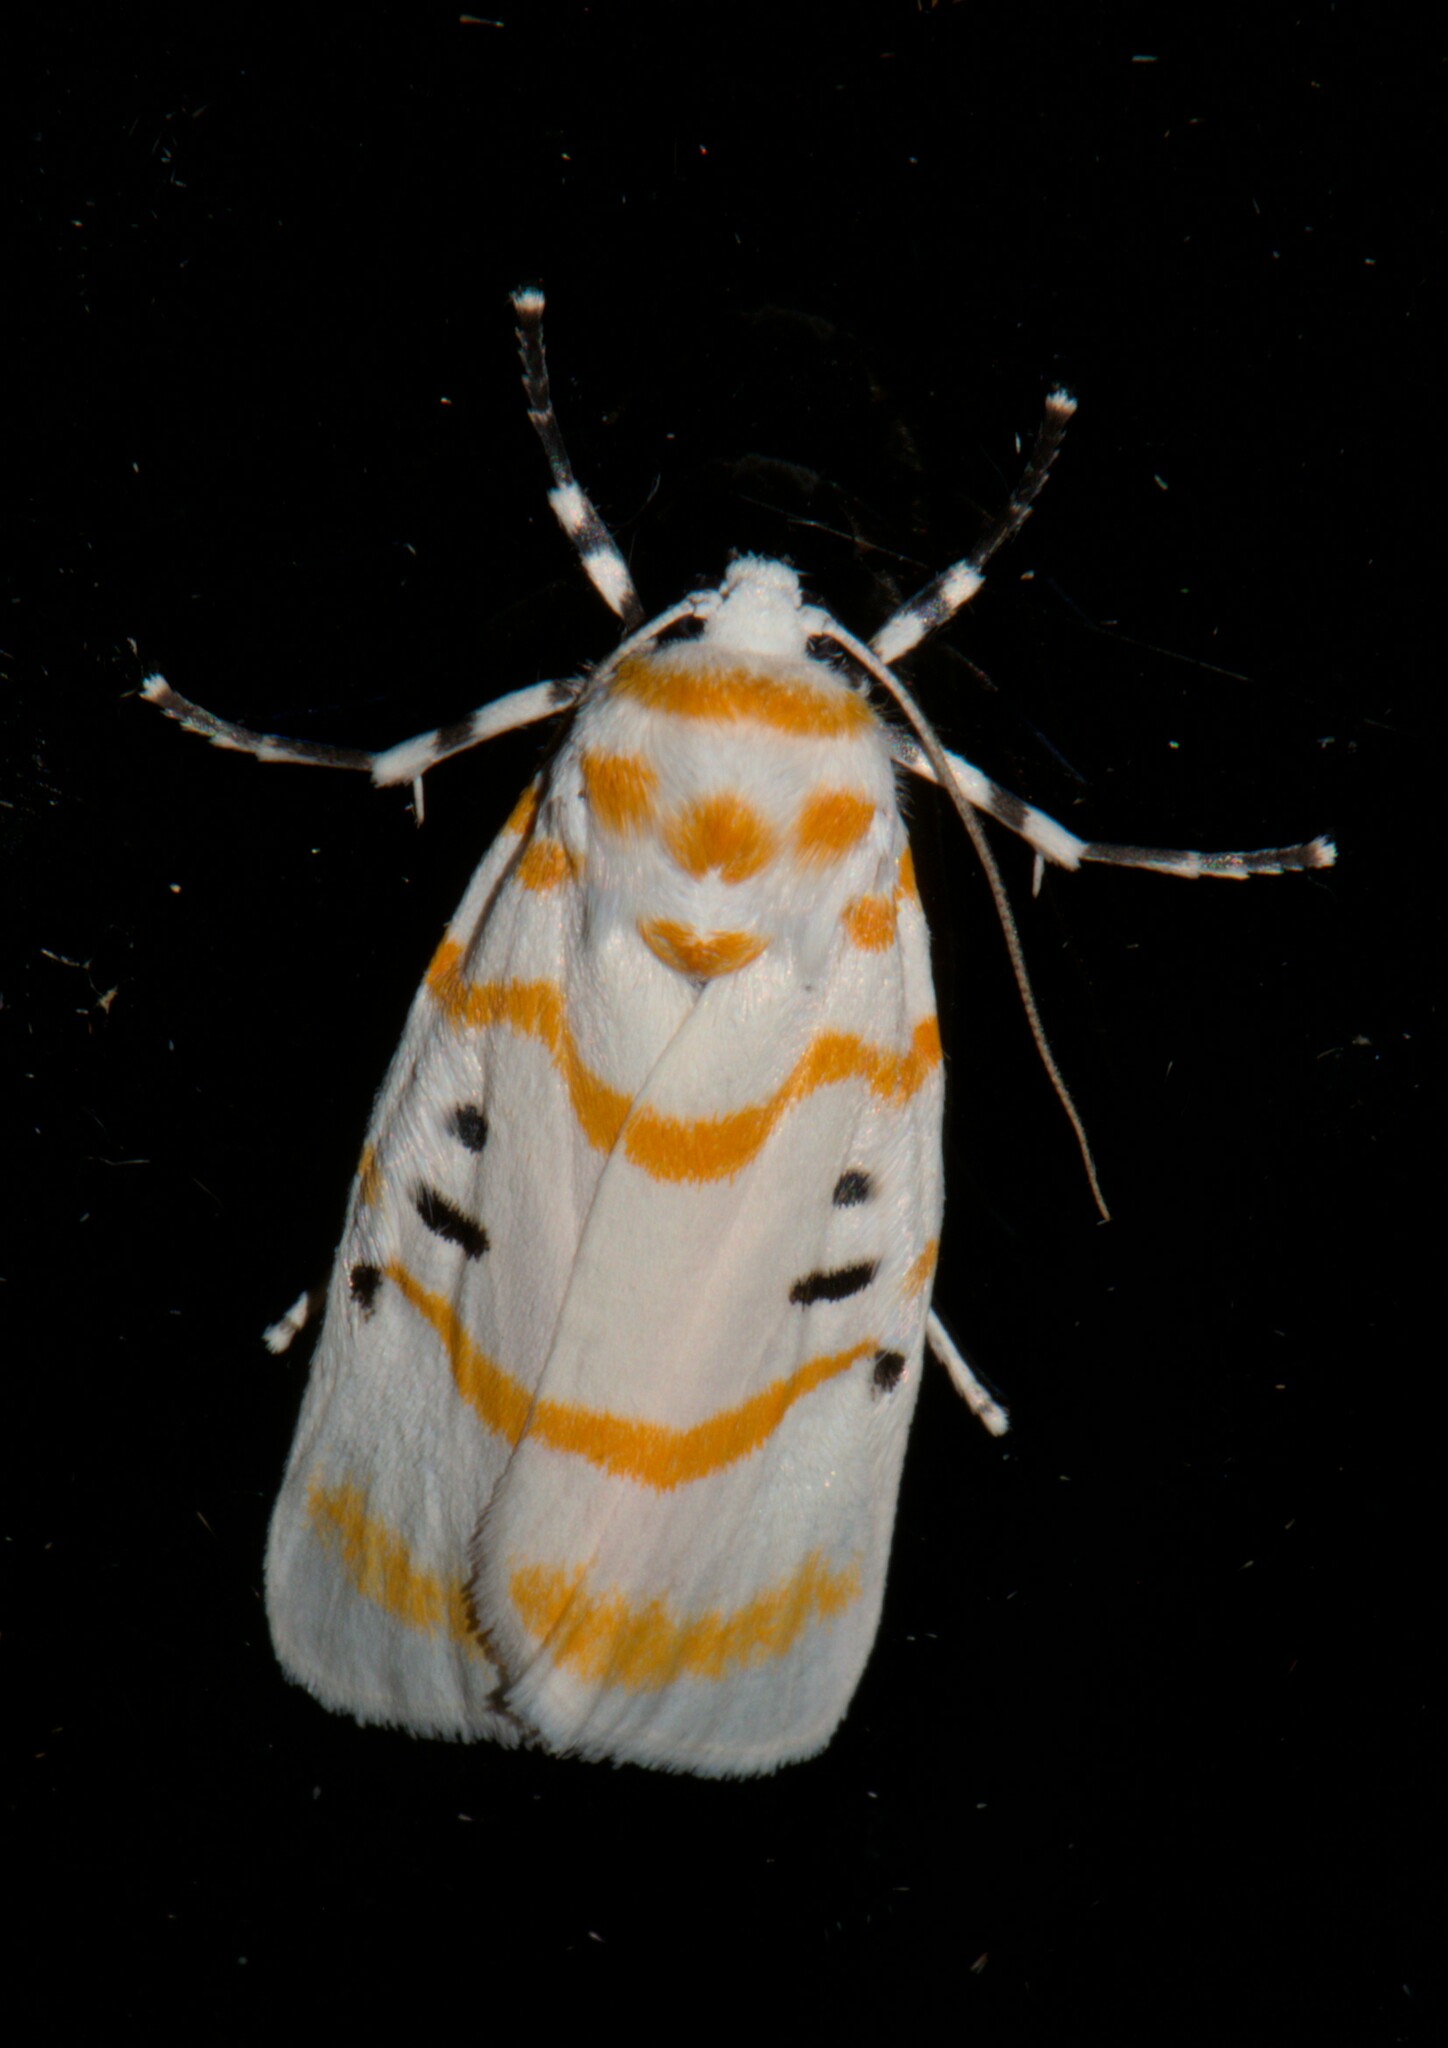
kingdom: Animalia
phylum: Arthropoda
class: Insecta
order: Lepidoptera
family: Erebidae
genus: Cyana
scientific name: Cyana arama
